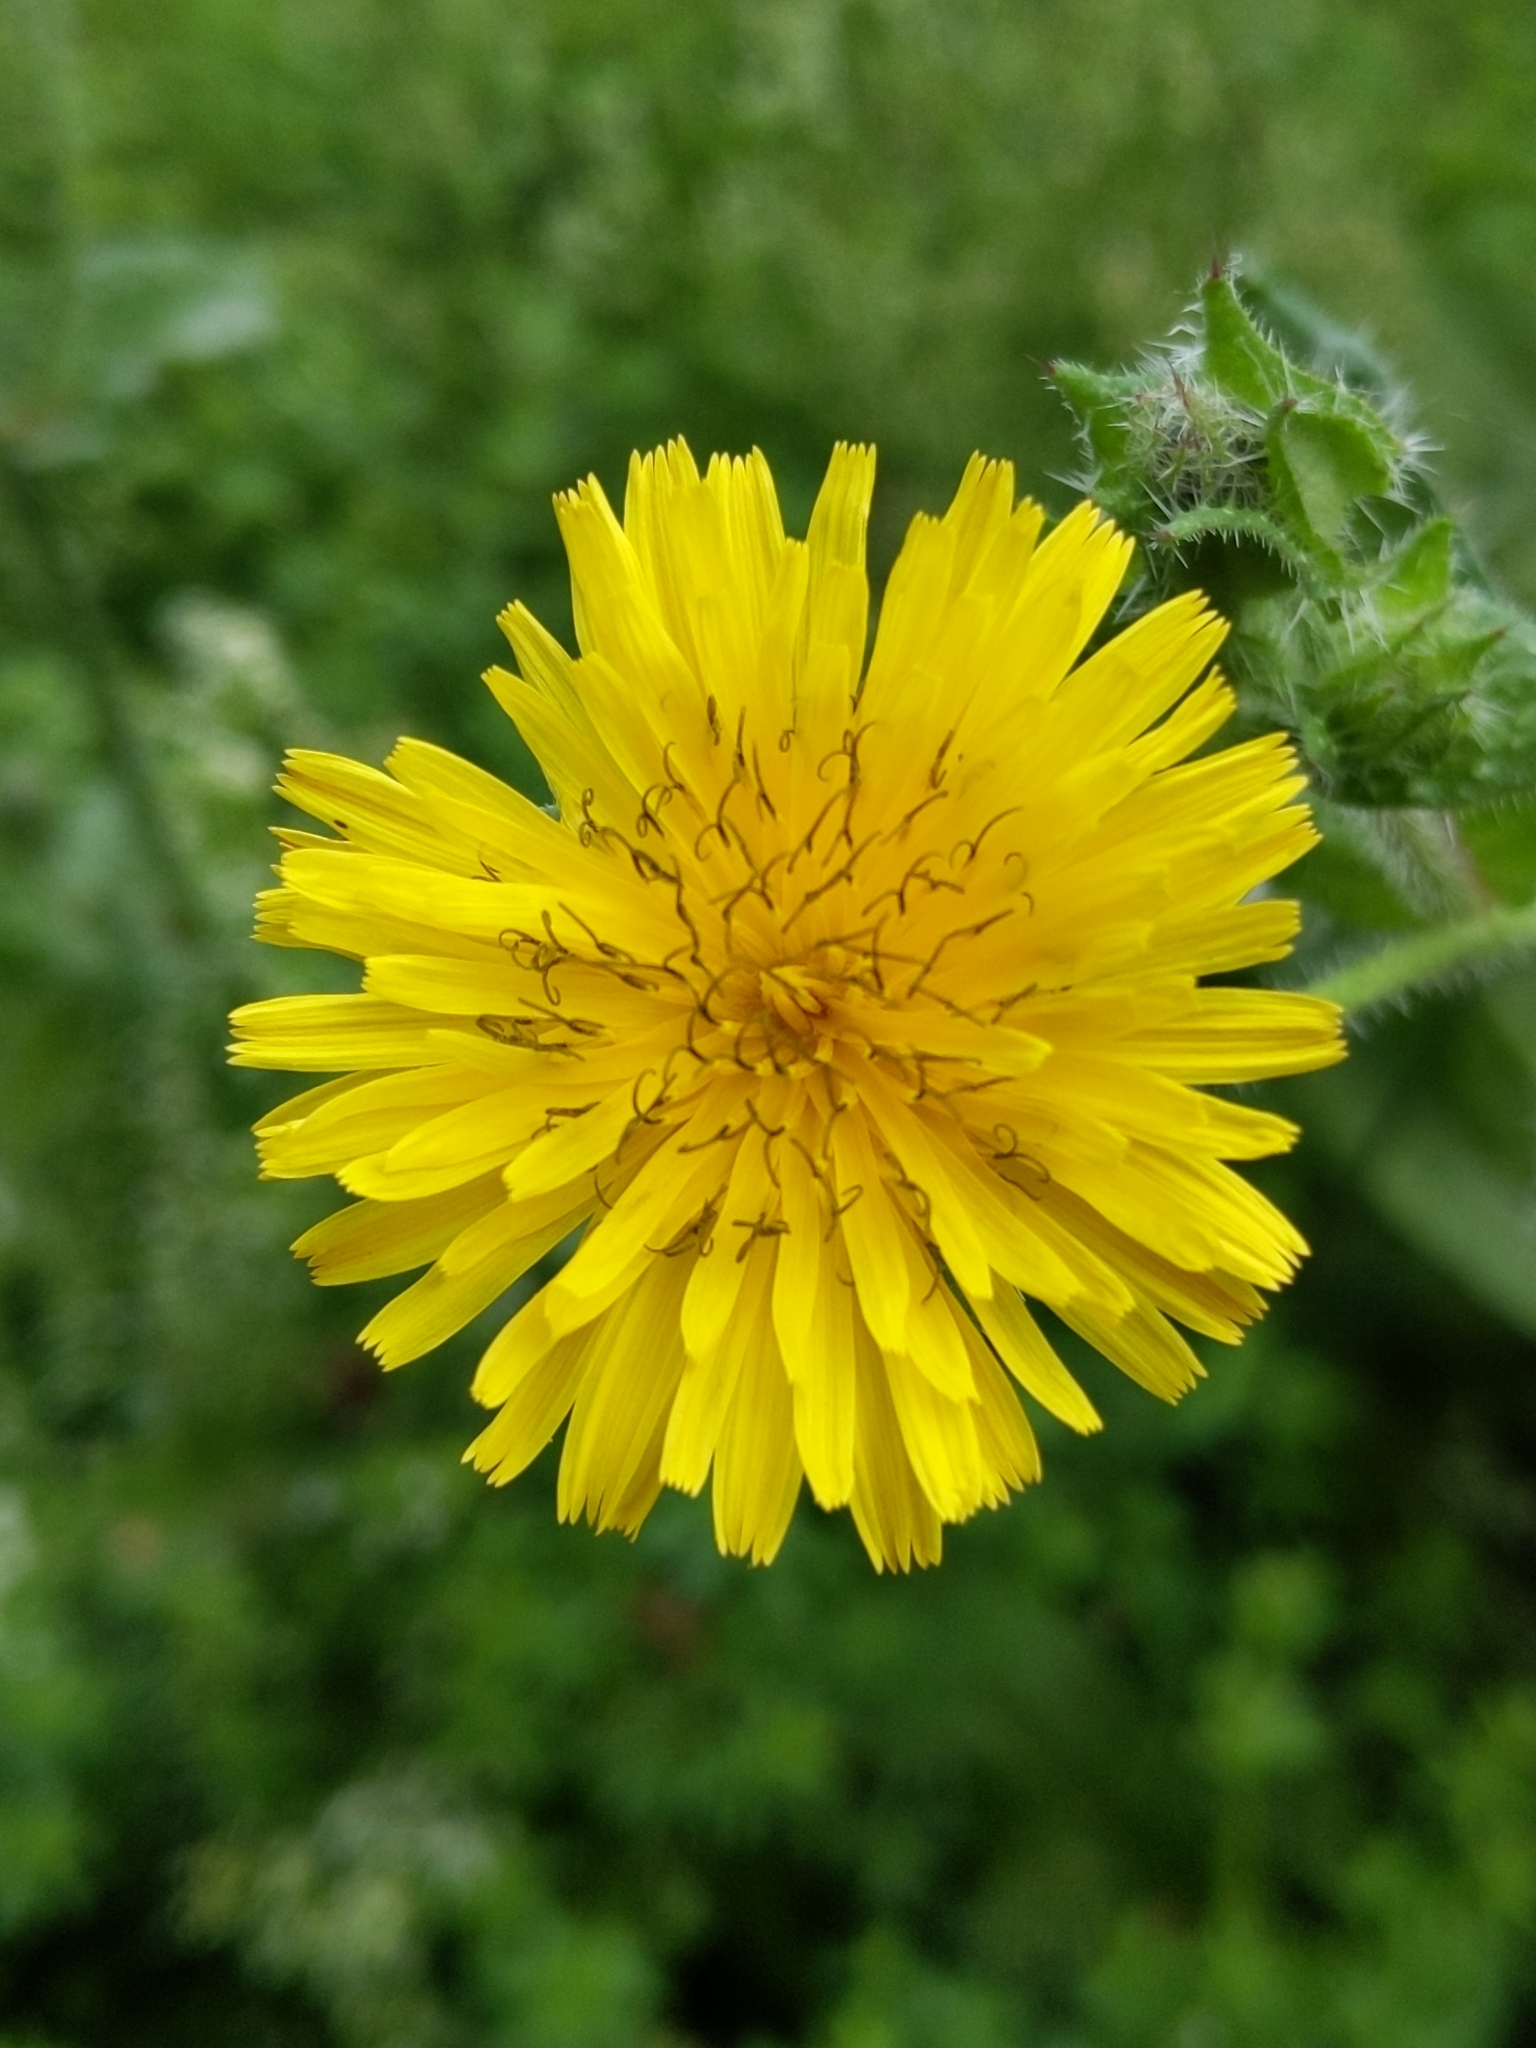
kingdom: Plantae
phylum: Tracheophyta
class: Magnoliopsida
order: Asterales
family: Asteraceae
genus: Helminthotheca
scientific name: Helminthotheca echioides
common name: Ox-tongue
